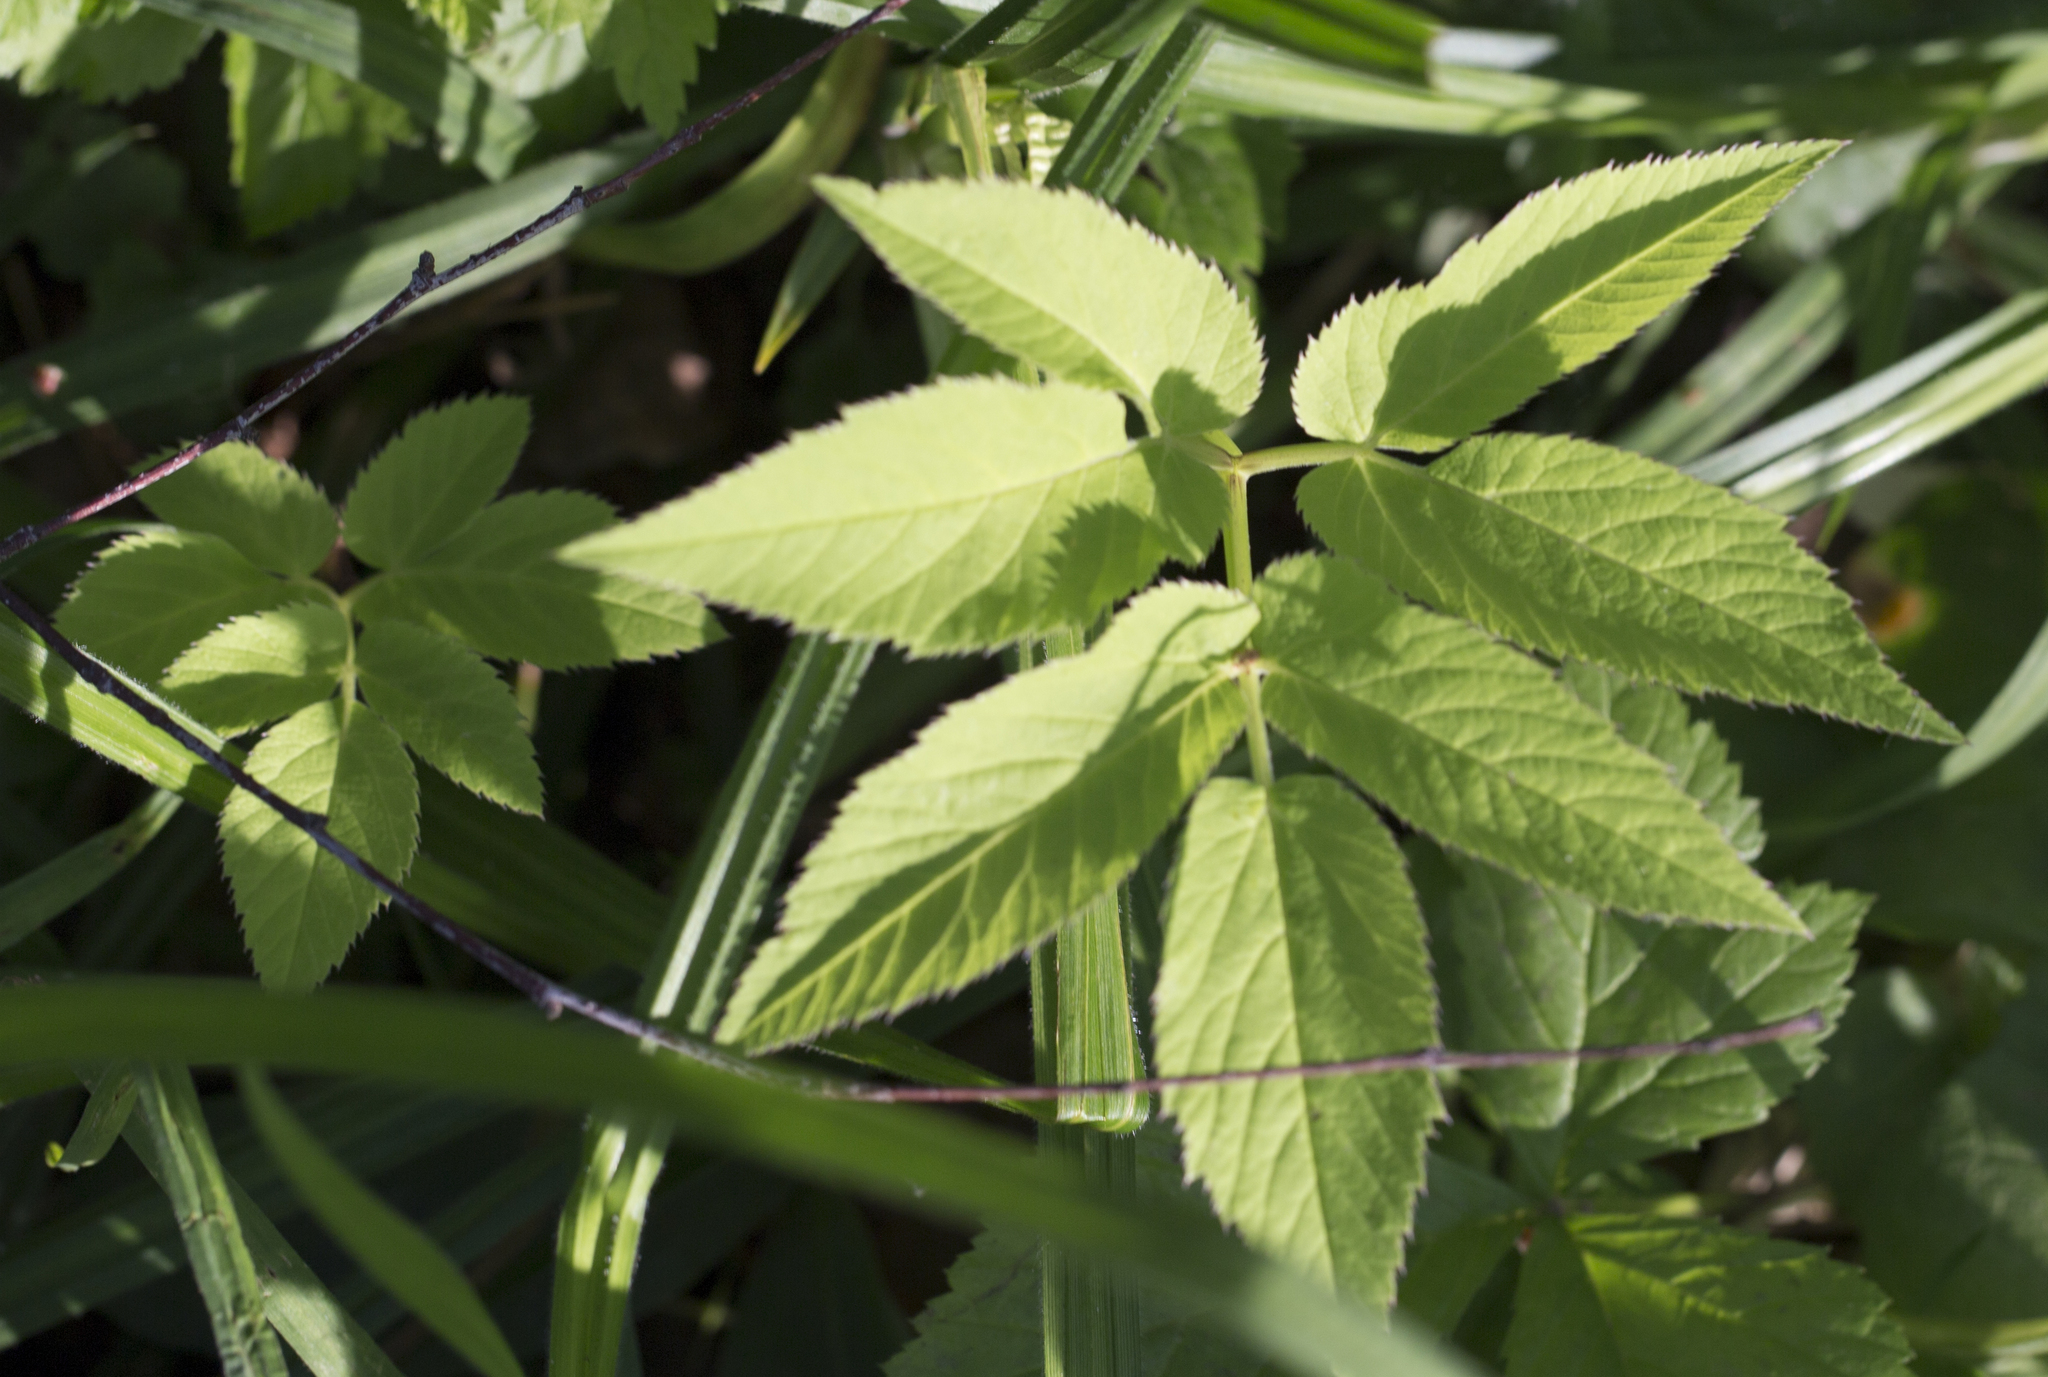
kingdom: Plantae
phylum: Tracheophyta
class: Magnoliopsida
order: Apiales
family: Apiaceae
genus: Aegopodium
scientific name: Aegopodium podagraria
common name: Ground-elder
